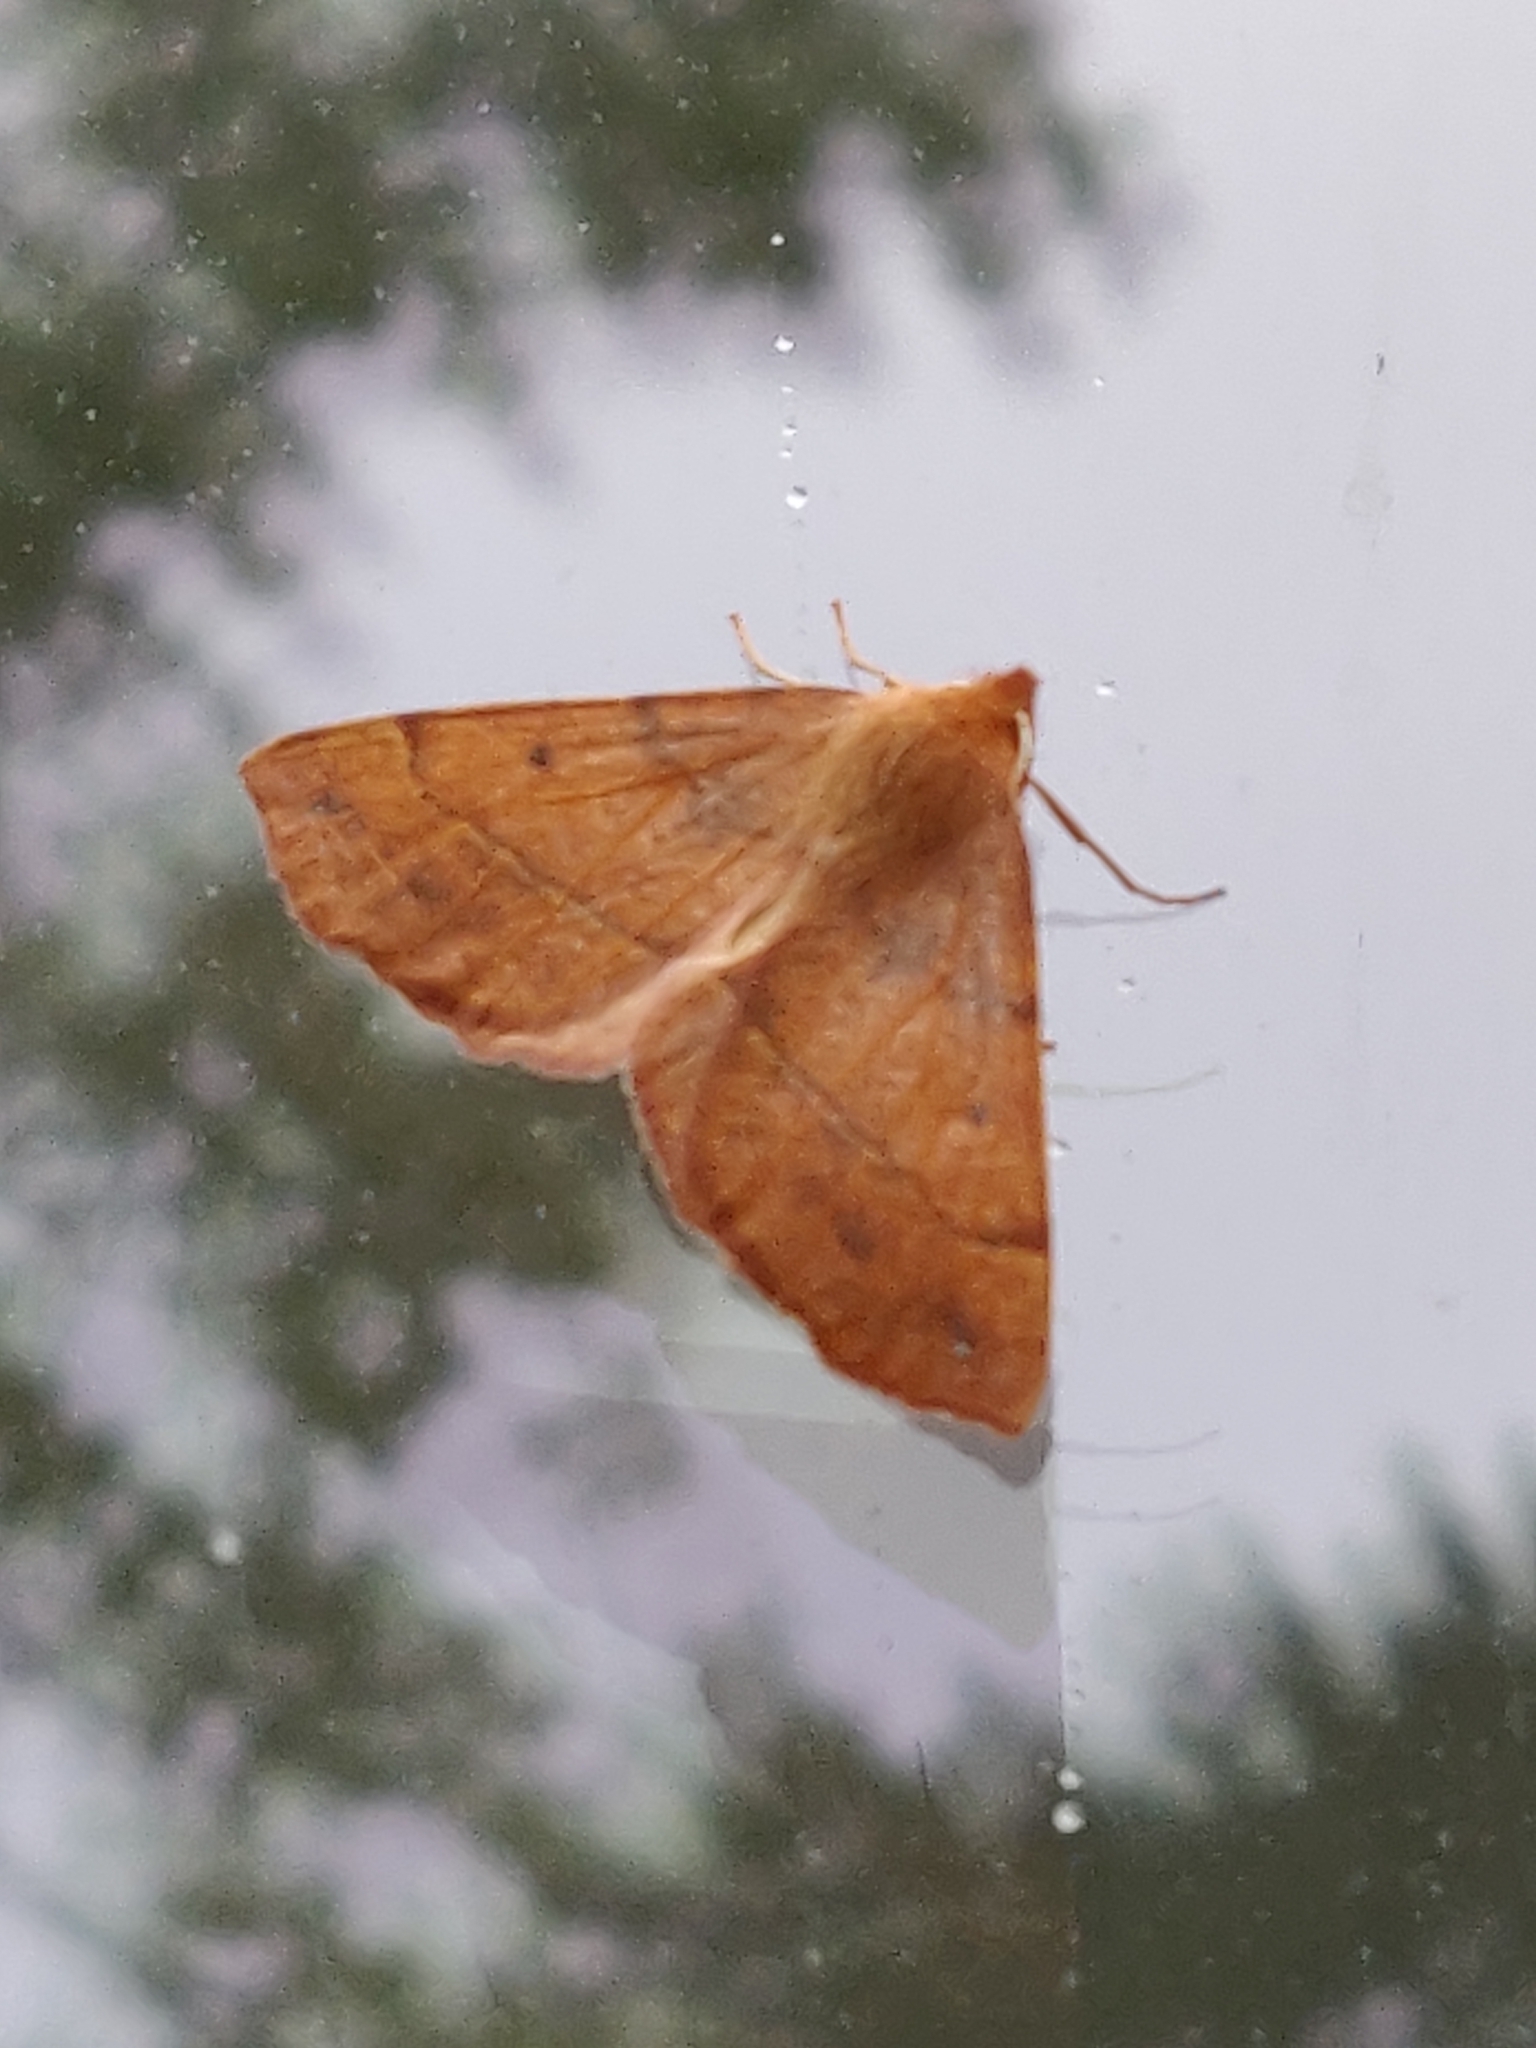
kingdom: Animalia
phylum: Arthropoda
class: Insecta
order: Lepidoptera
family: Geometridae
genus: Colotois
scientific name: Colotois pennaria
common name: Feathered thorn
